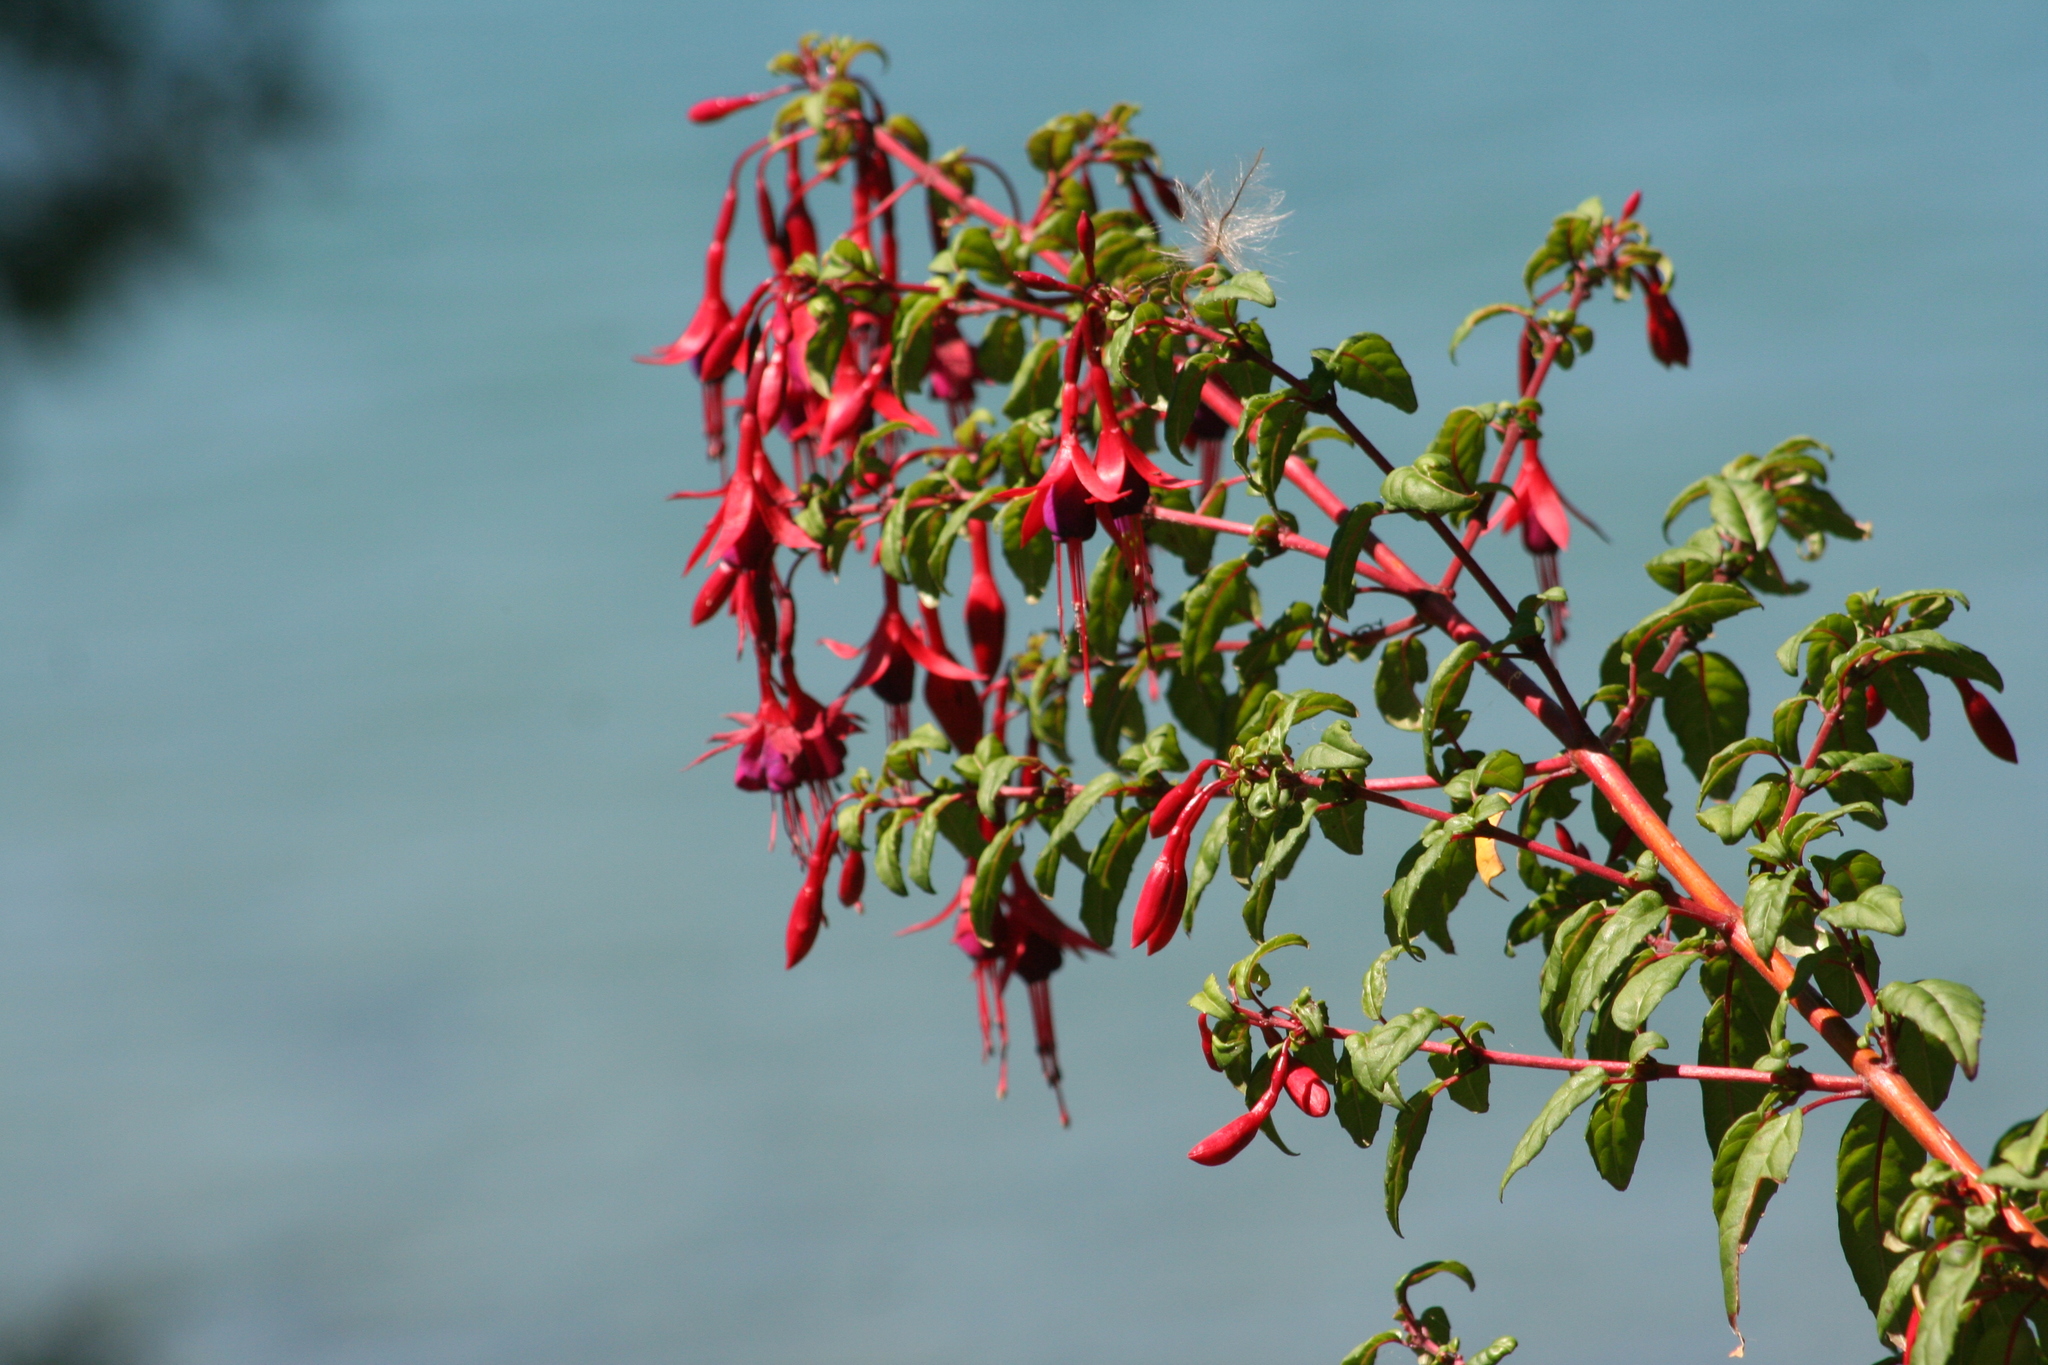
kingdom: Plantae
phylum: Tracheophyta
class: Magnoliopsida
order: Myrtales
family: Onagraceae
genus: Fuchsia
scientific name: Fuchsia magellanica
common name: Hardy fuchsia
